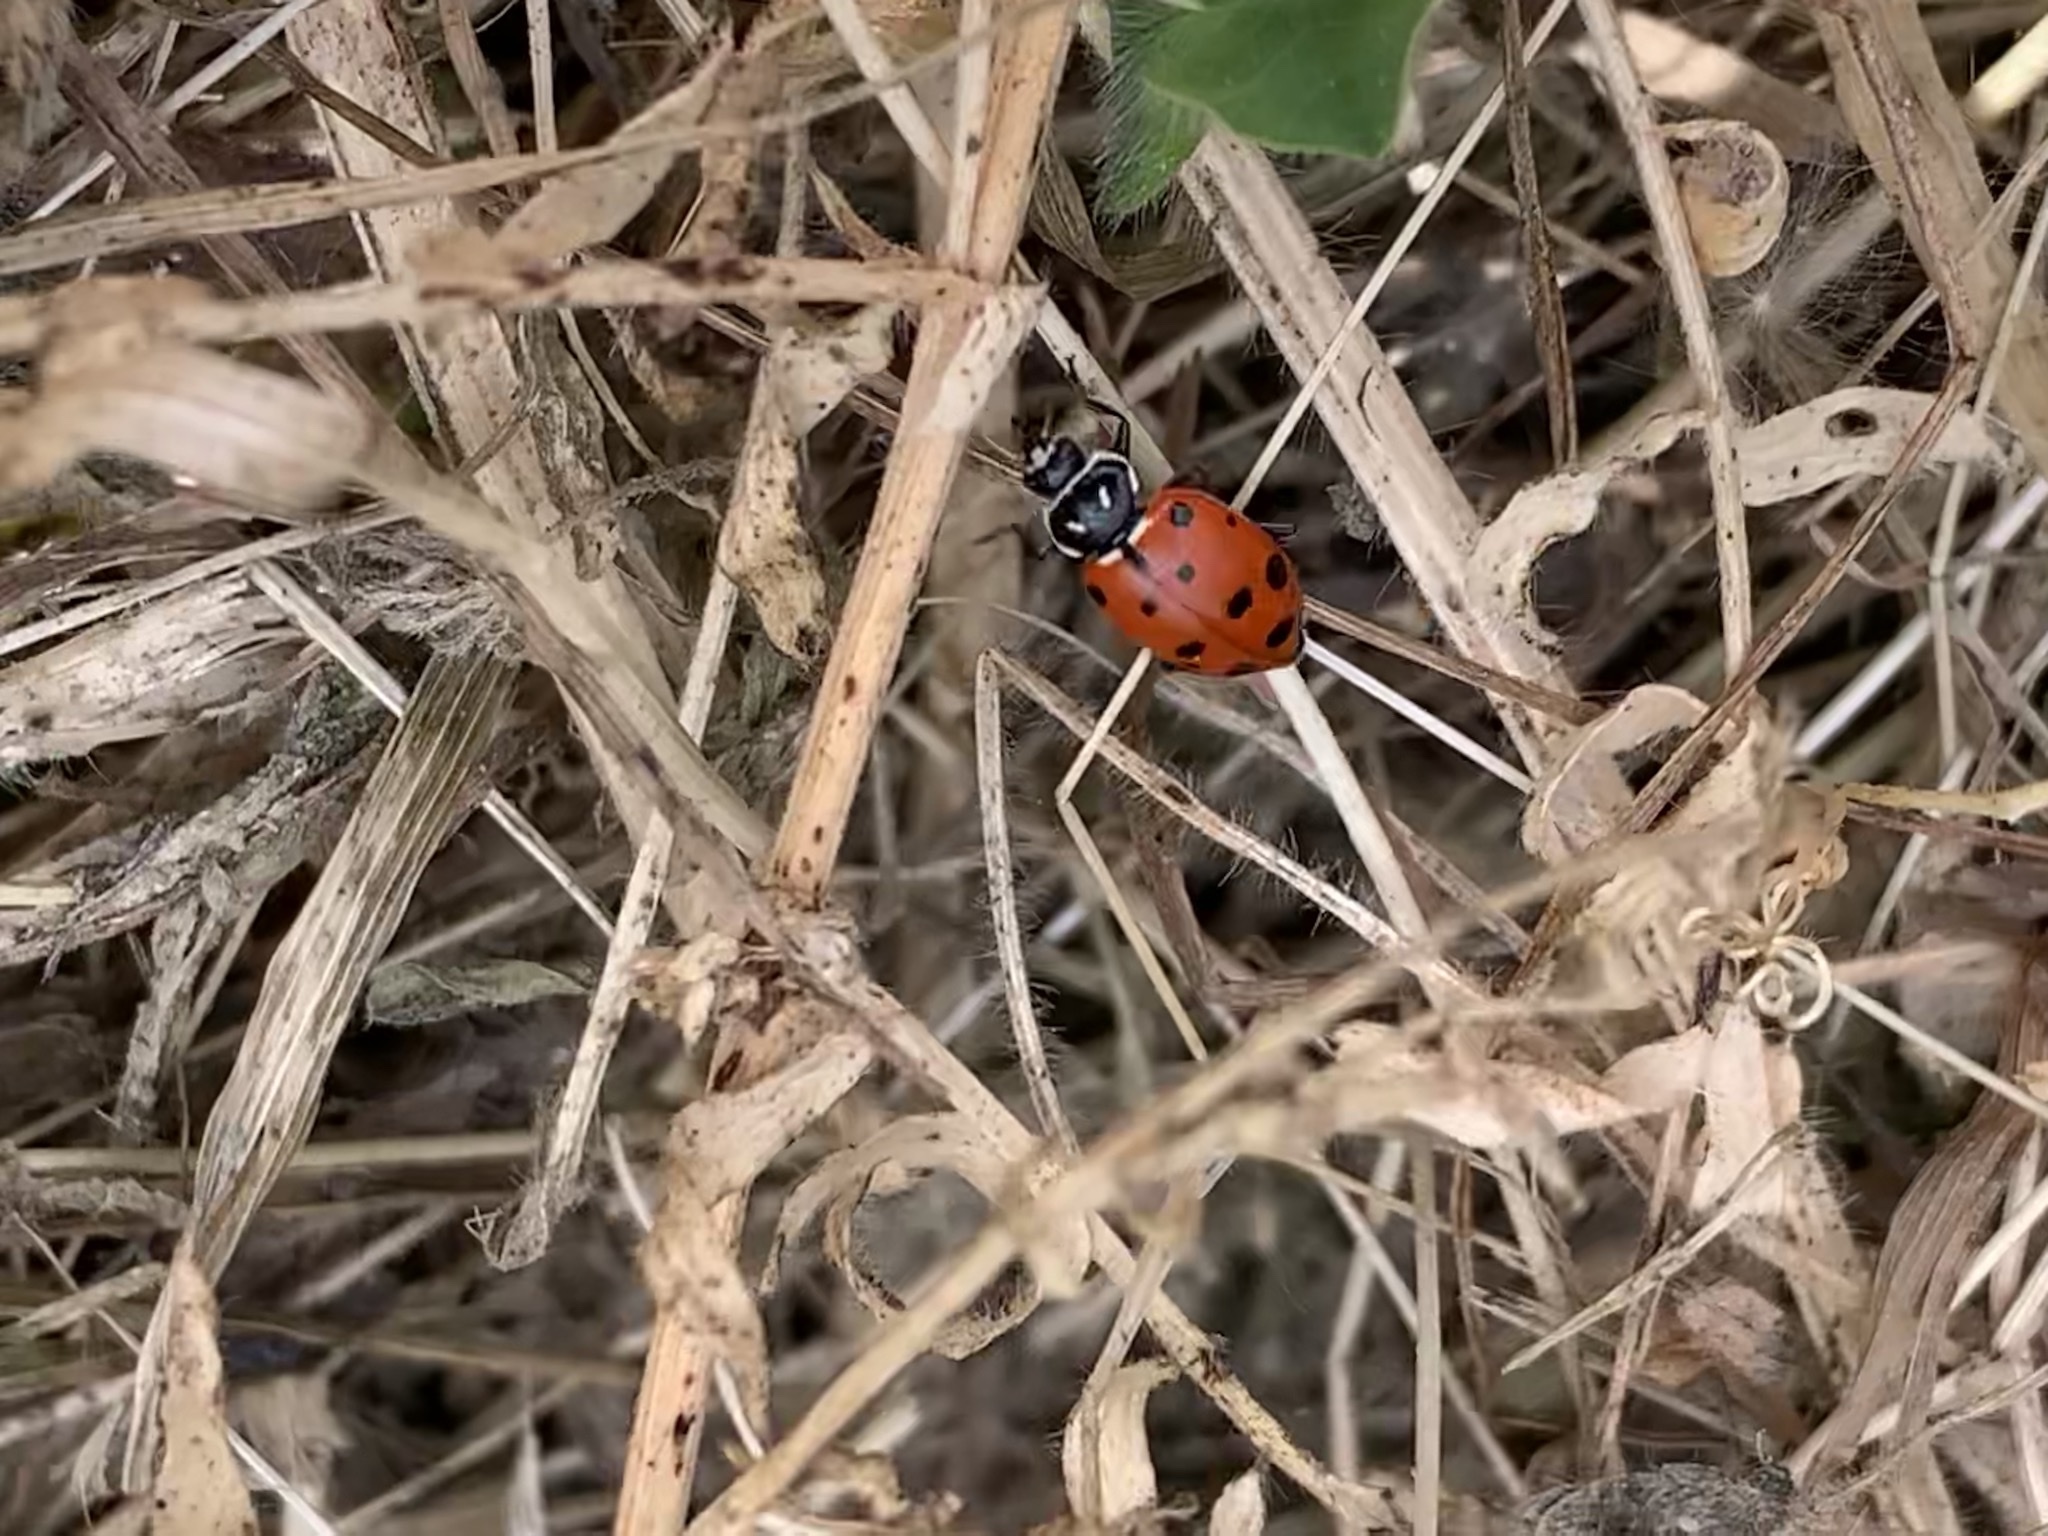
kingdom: Animalia
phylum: Arthropoda
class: Insecta
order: Coleoptera
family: Coccinellidae
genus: Hippodamia
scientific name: Hippodamia convergens
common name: Convergent lady beetle
